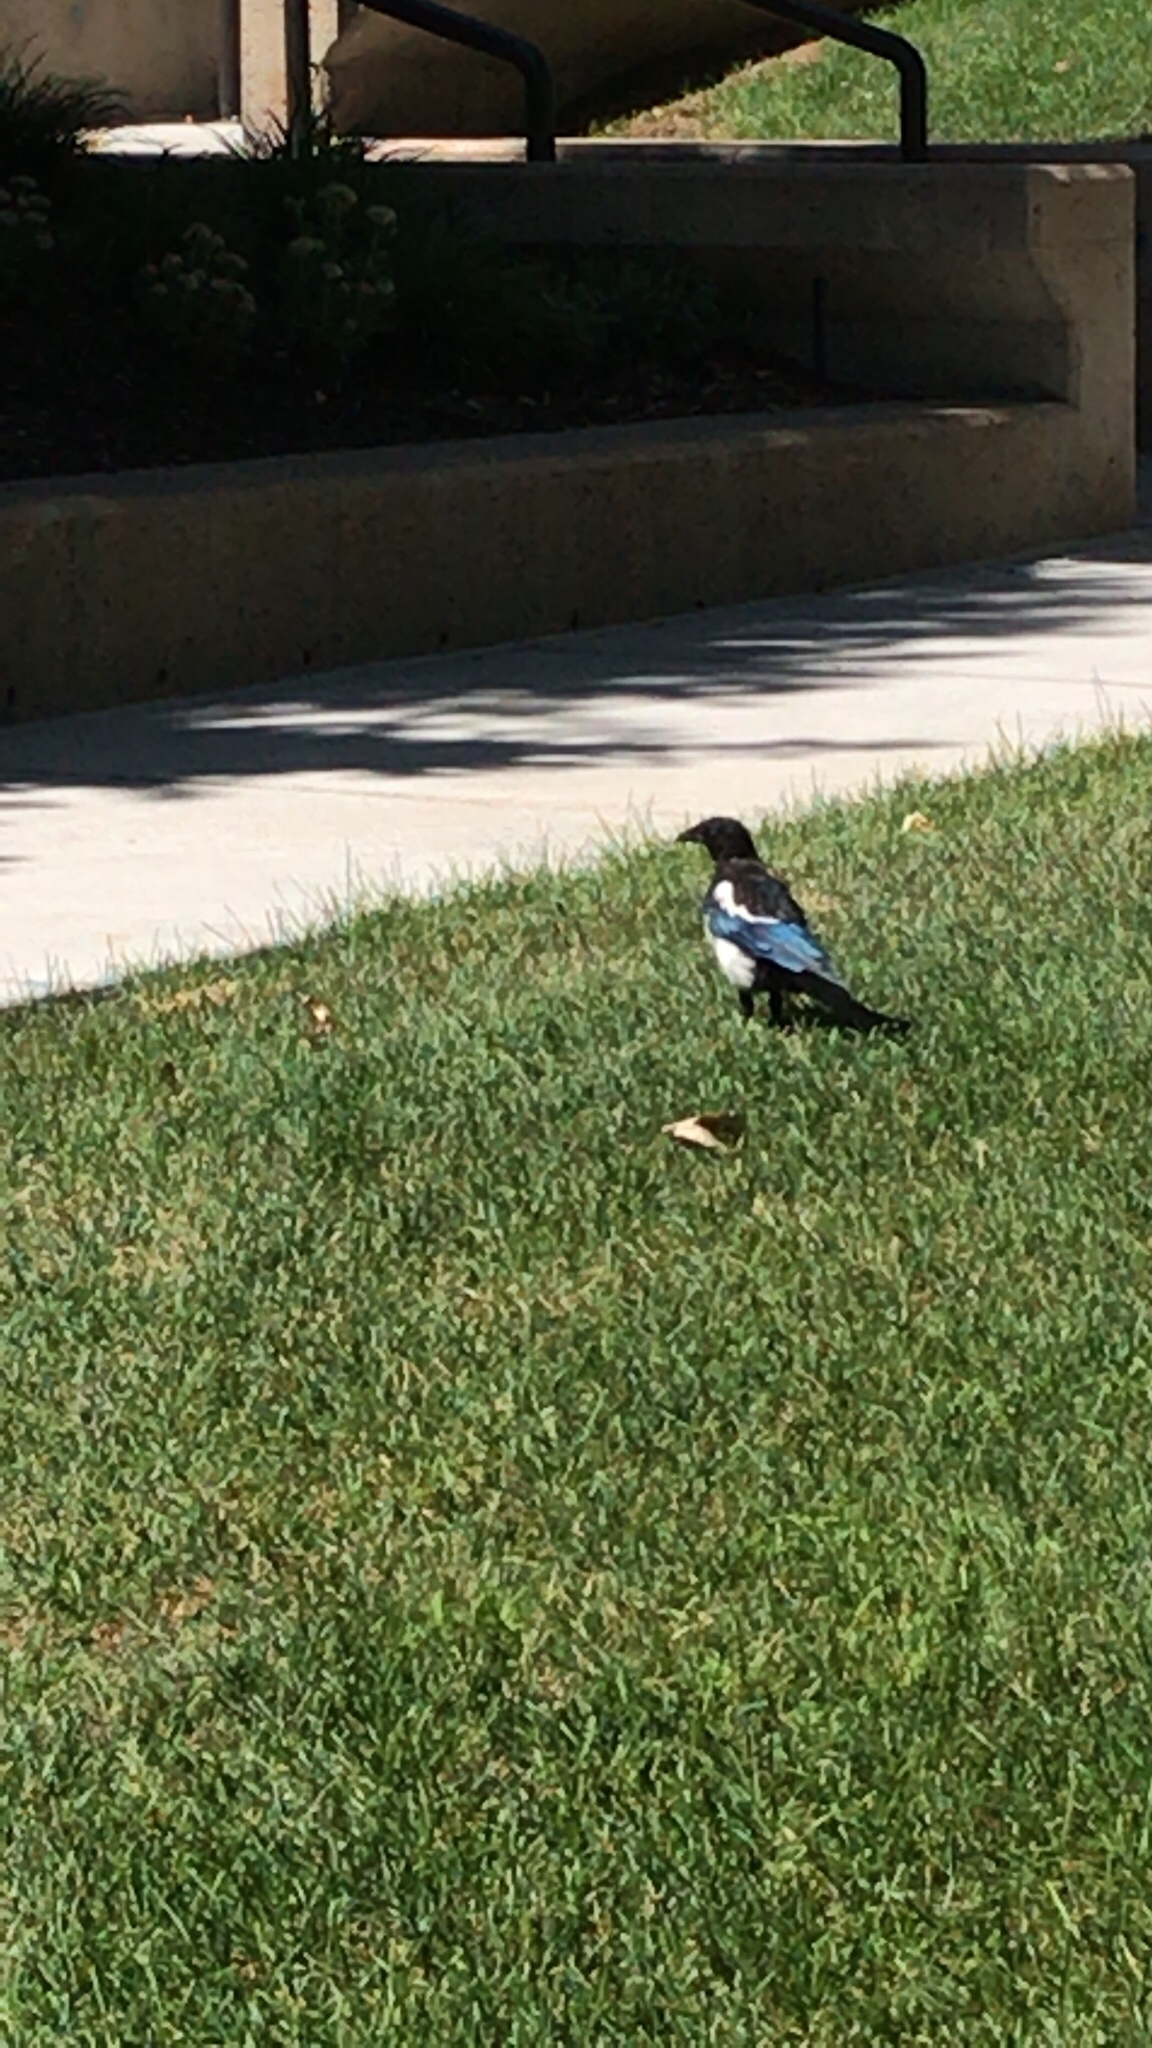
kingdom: Animalia
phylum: Chordata
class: Aves
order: Passeriformes
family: Corvidae
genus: Pica
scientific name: Pica hudsonia
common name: Black-billed magpie
